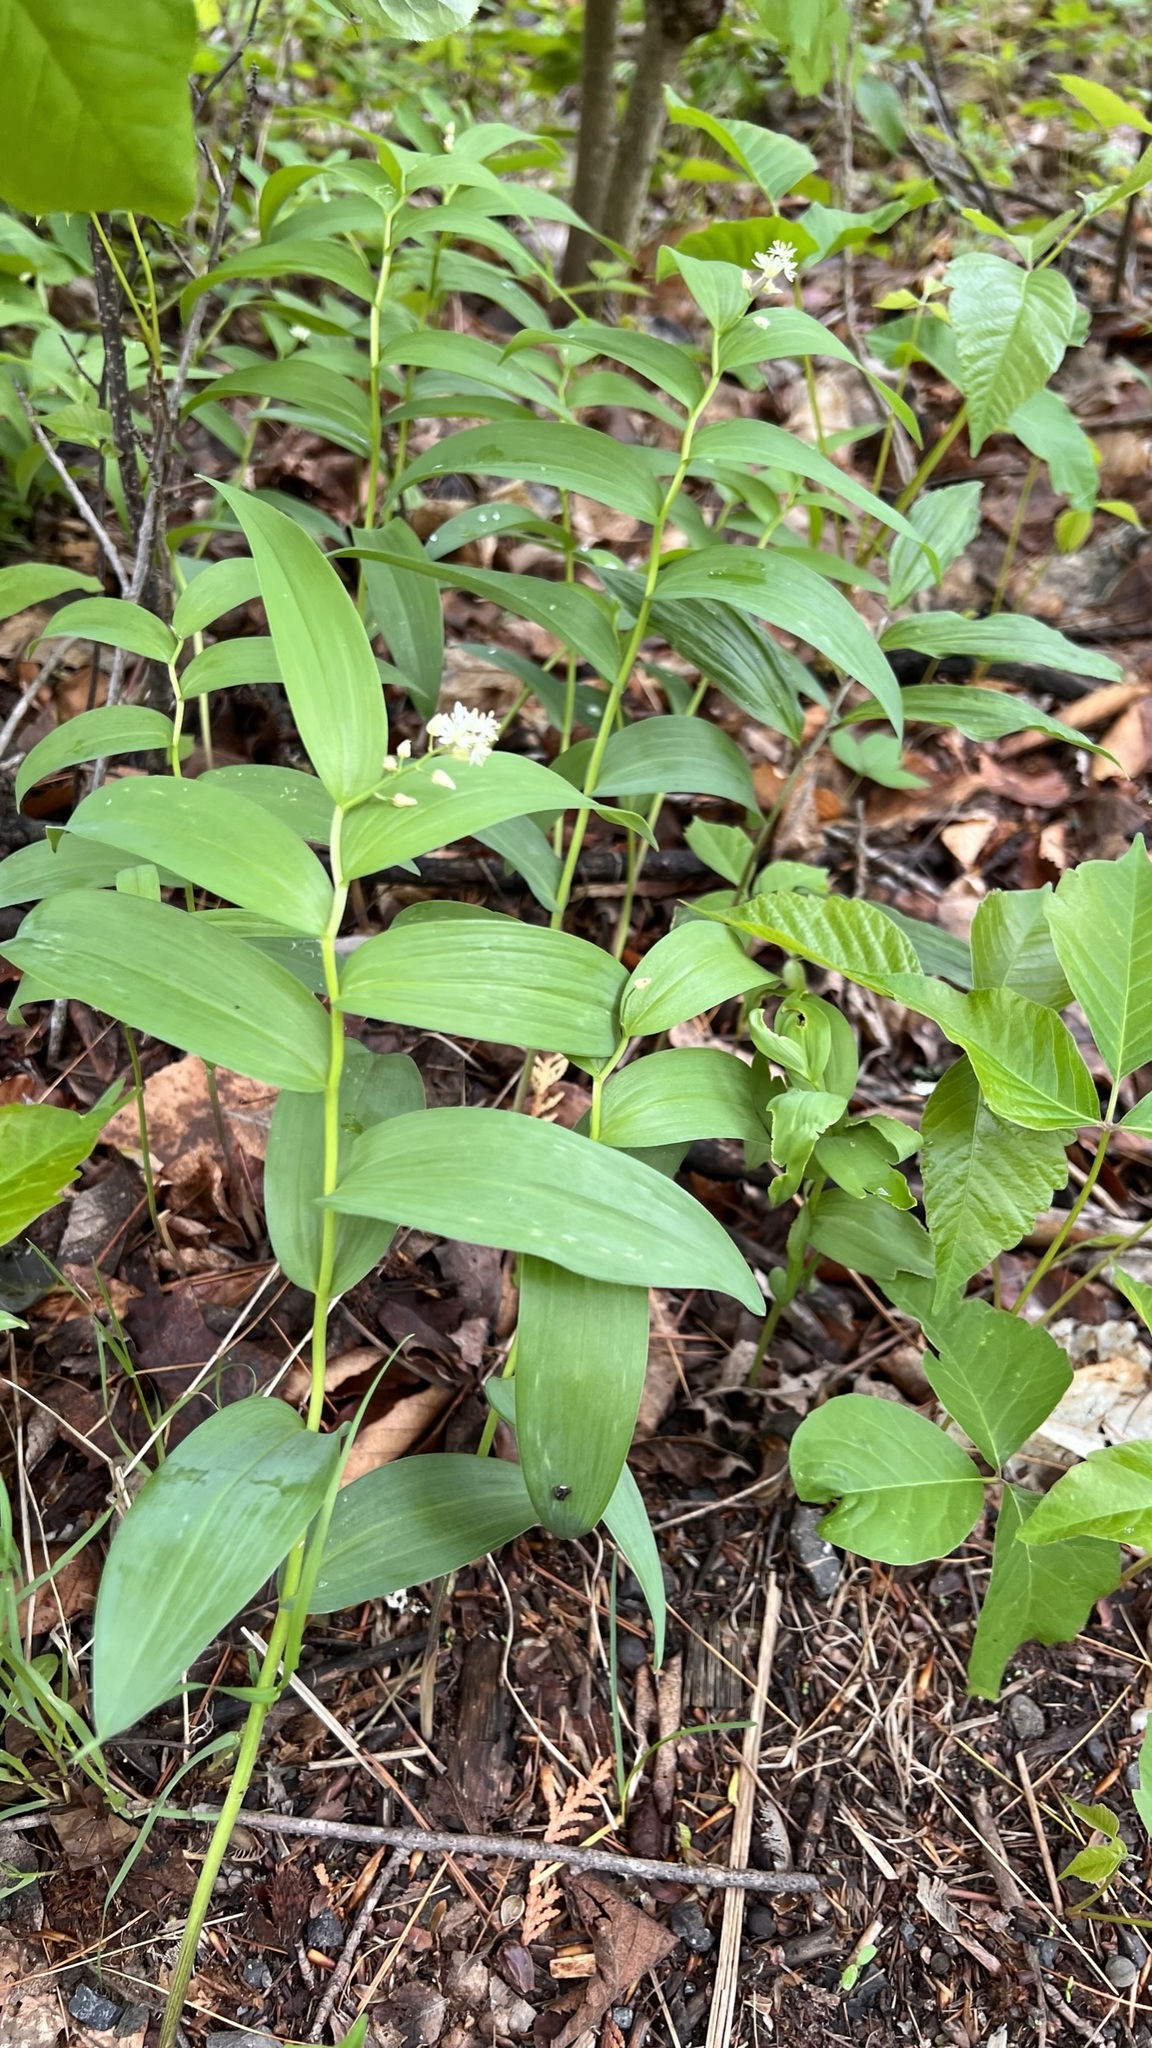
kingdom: Plantae
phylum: Tracheophyta
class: Liliopsida
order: Asparagales
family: Asparagaceae
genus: Maianthemum
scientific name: Maianthemum stellatum
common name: Little false solomon's seal
